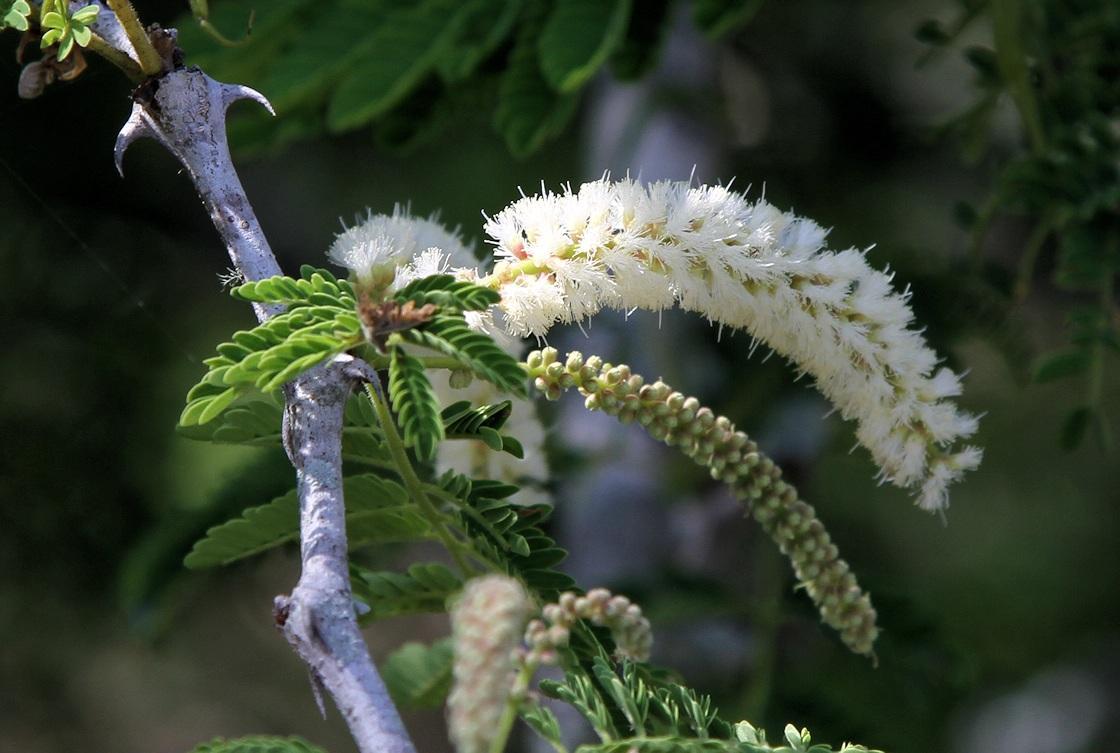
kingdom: Plantae
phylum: Tracheophyta
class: Magnoliopsida
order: Fabales
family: Fabaceae
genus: Senegalia
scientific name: Senegalia burkei
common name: Black monkey thorn
